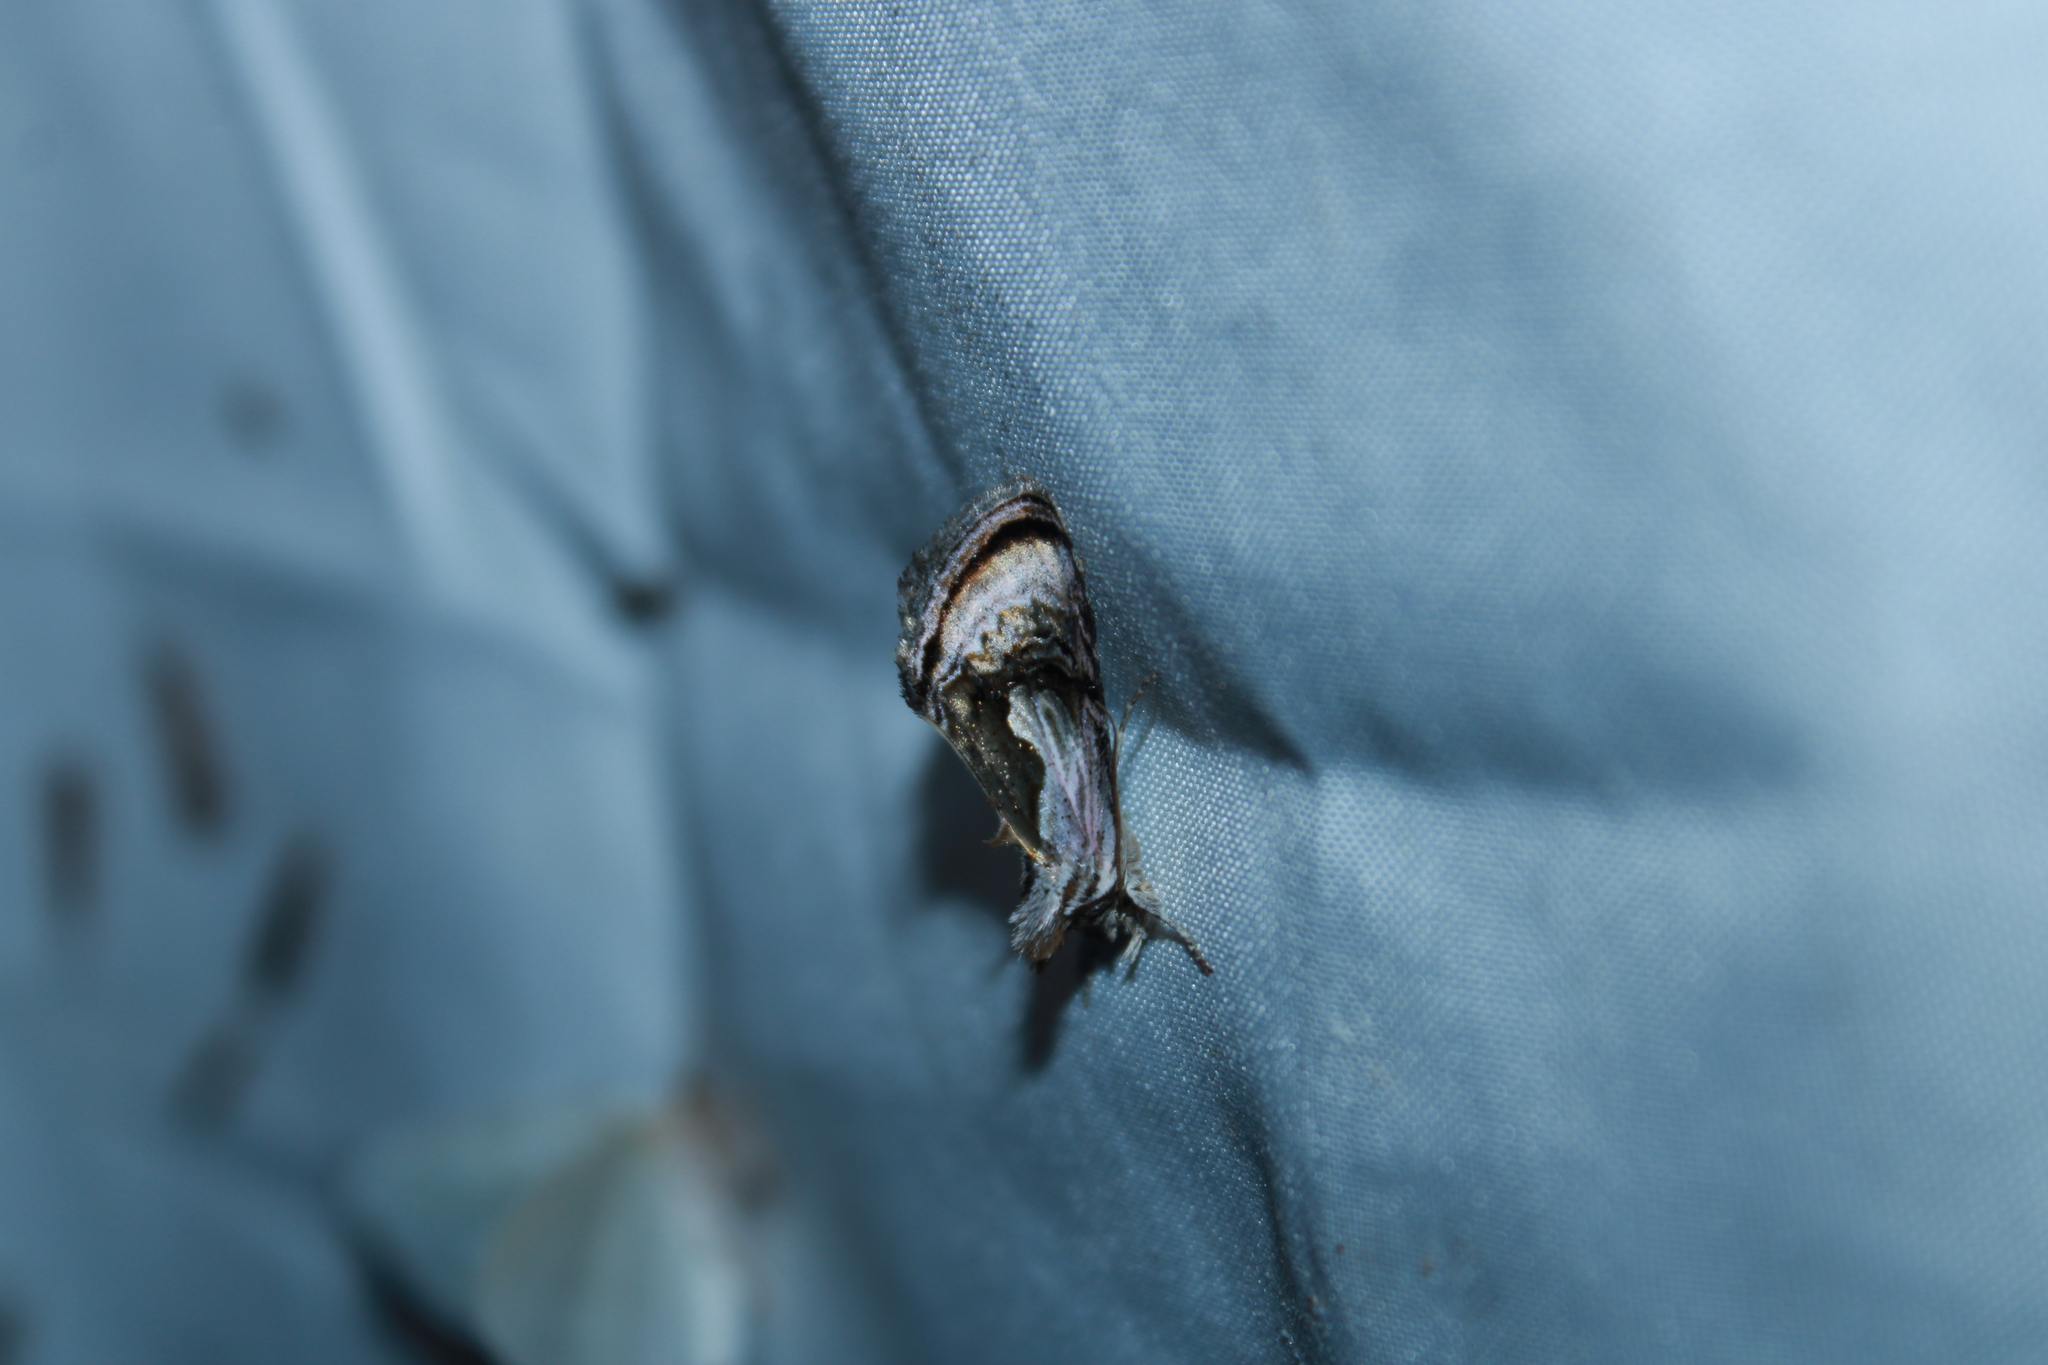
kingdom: Animalia
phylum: Arthropoda
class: Insecta
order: Lepidoptera
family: Noctuidae
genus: Chrysanympha
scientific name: Chrysanympha formosa
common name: Formosa looper moth
